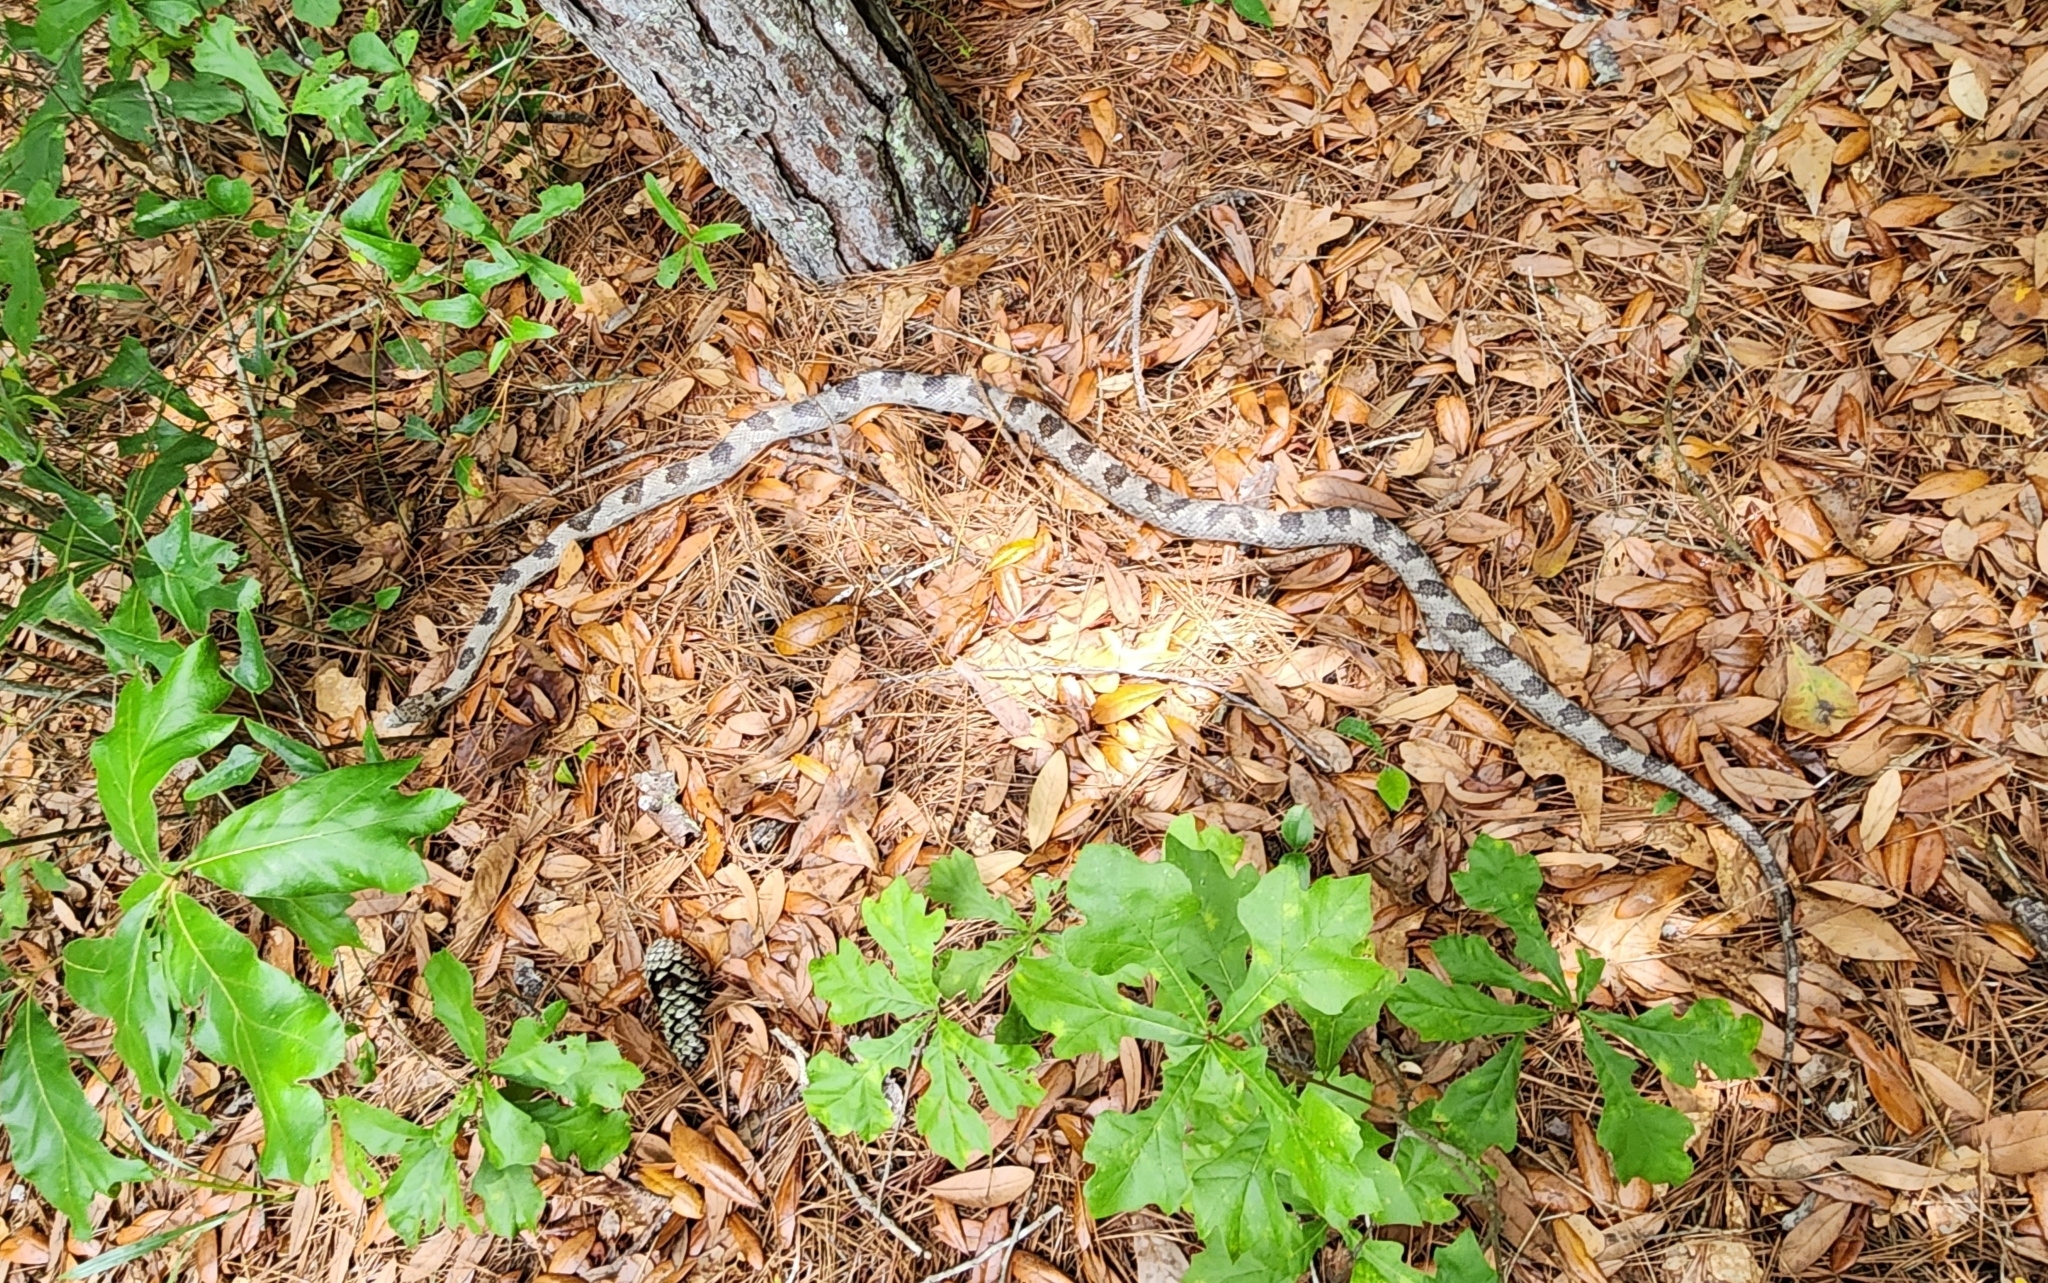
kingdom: Animalia
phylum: Chordata
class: Squamata
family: Colubridae
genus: Pantherophis
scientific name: Pantherophis
